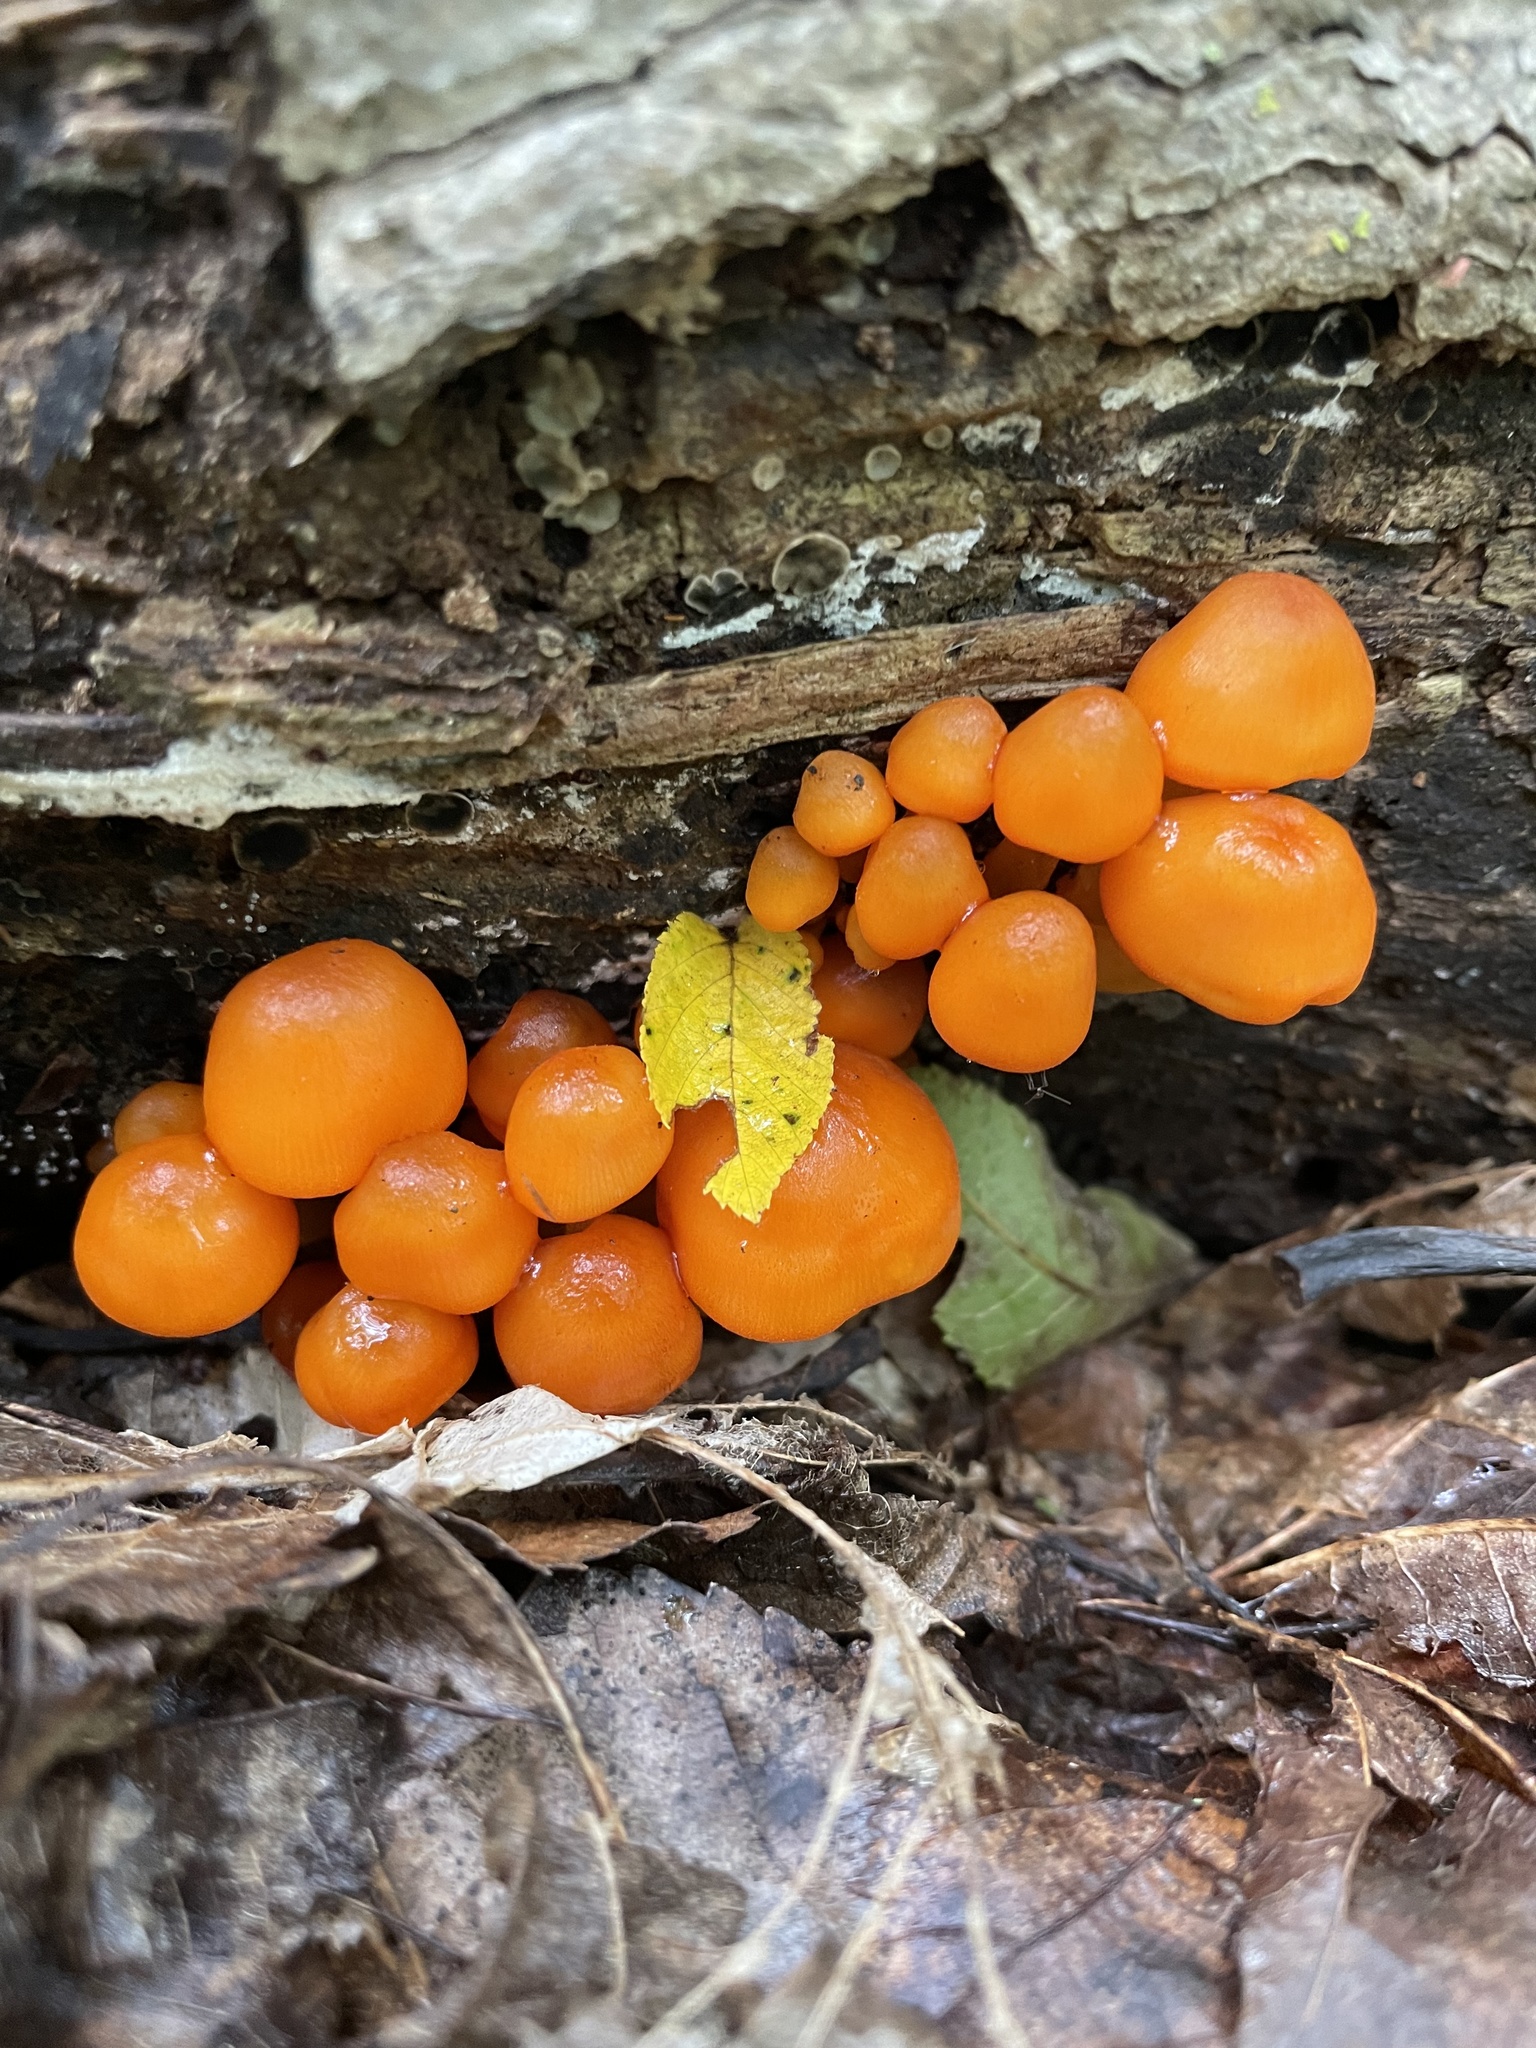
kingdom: Fungi
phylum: Basidiomycota
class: Agaricomycetes
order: Agaricales
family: Mycenaceae
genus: Mycena
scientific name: Mycena leaiana
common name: Orange mycena
